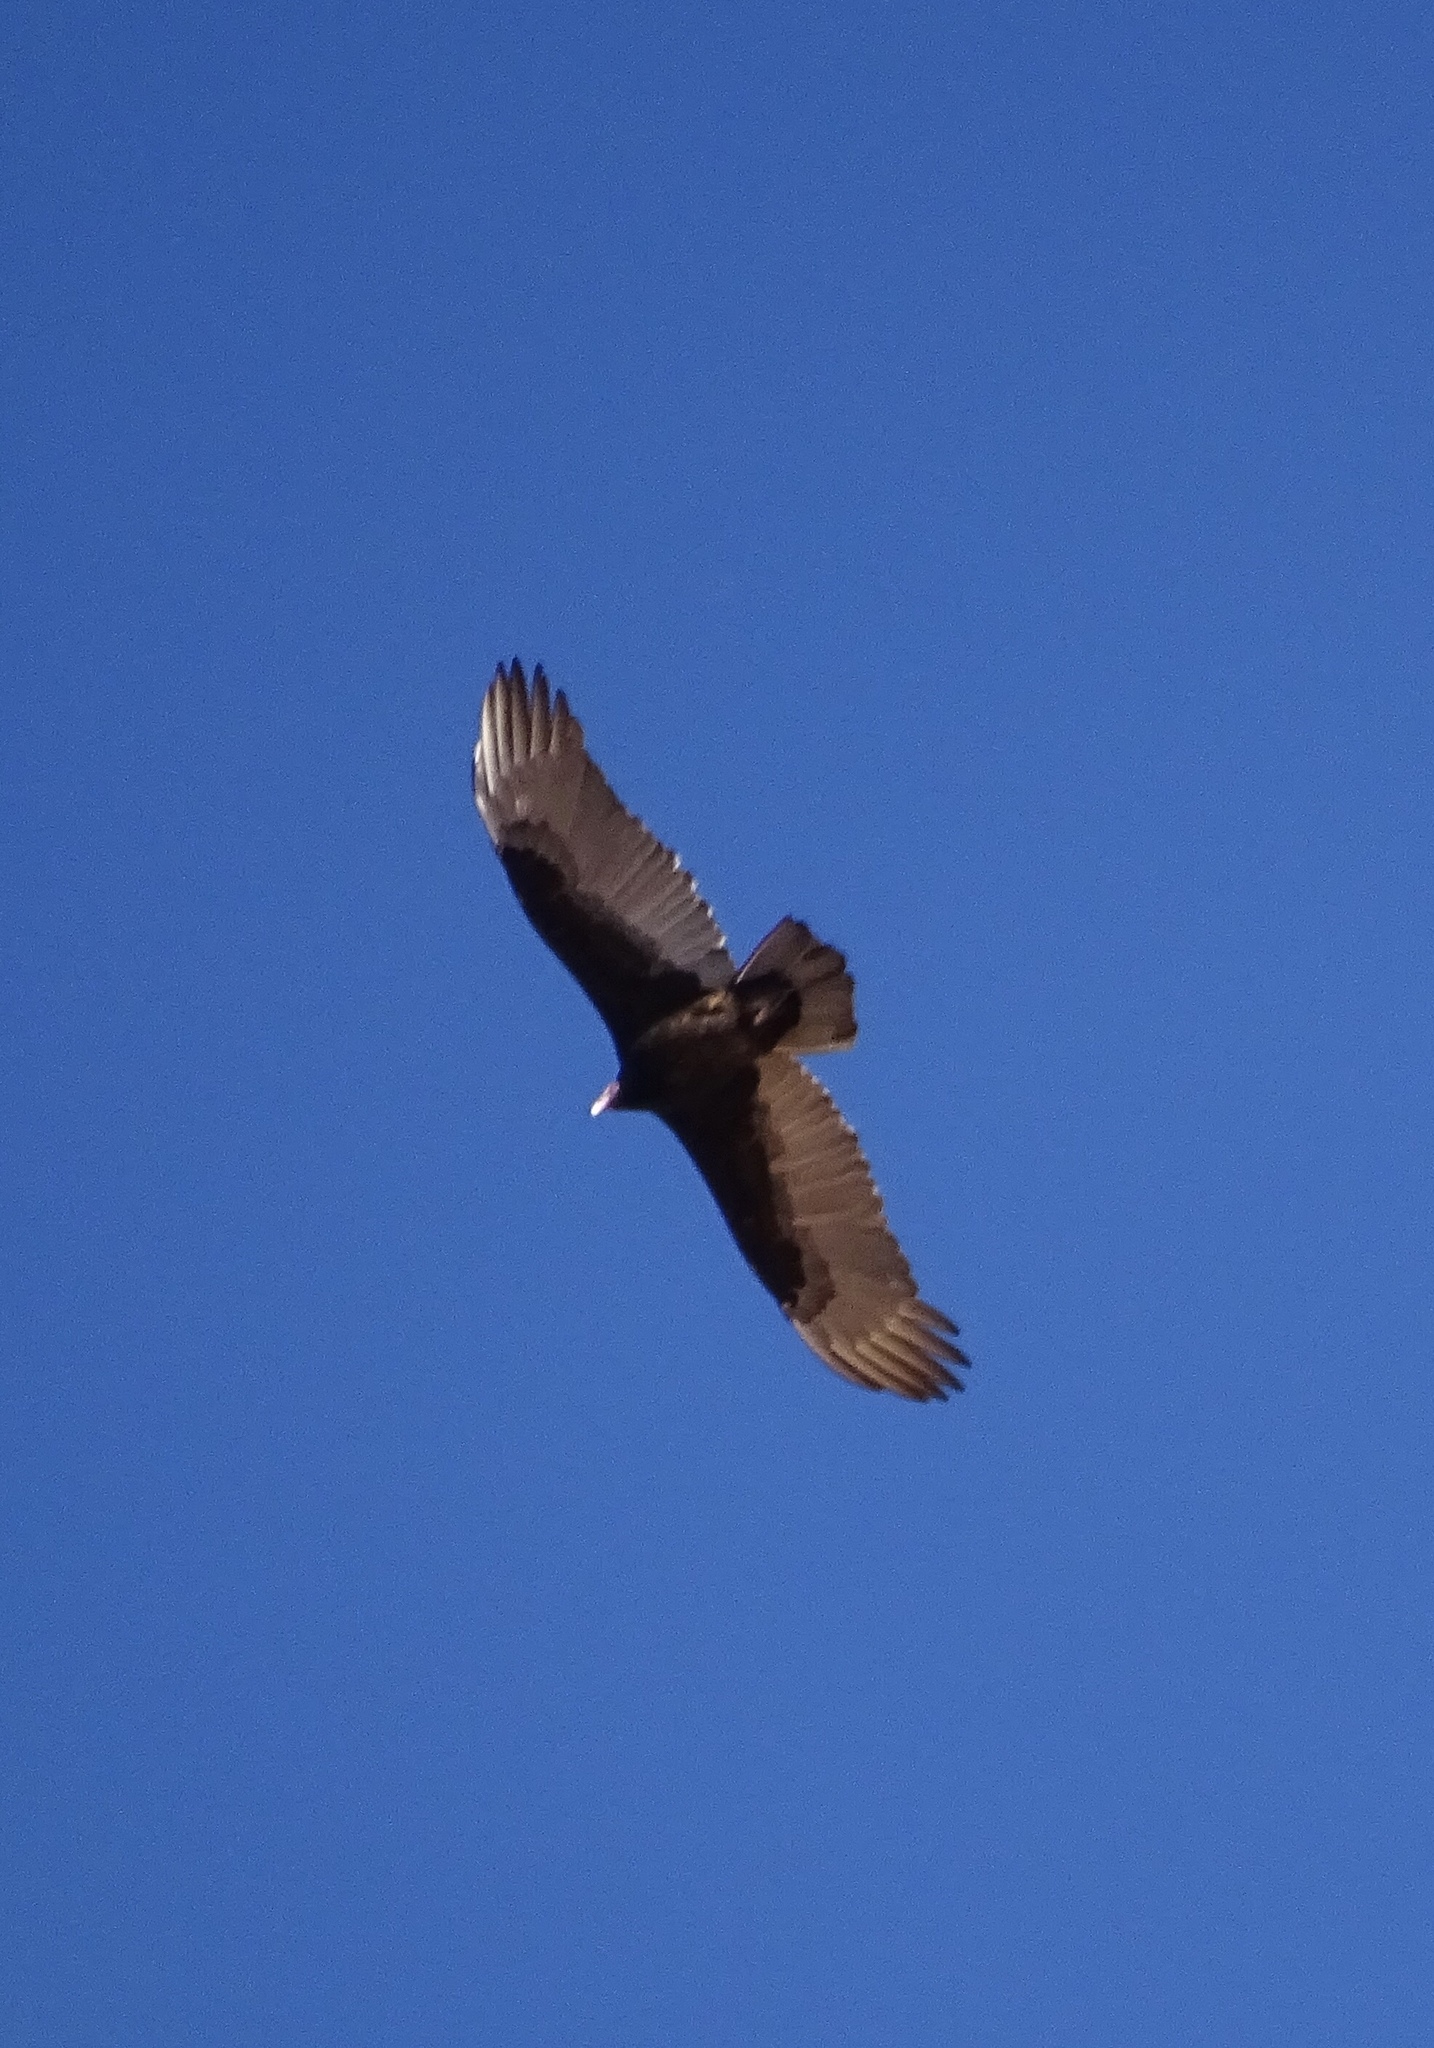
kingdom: Animalia
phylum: Chordata
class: Aves
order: Accipitriformes
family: Cathartidae
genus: Cathartes
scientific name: Cathartes aura
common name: Turkey vulture
